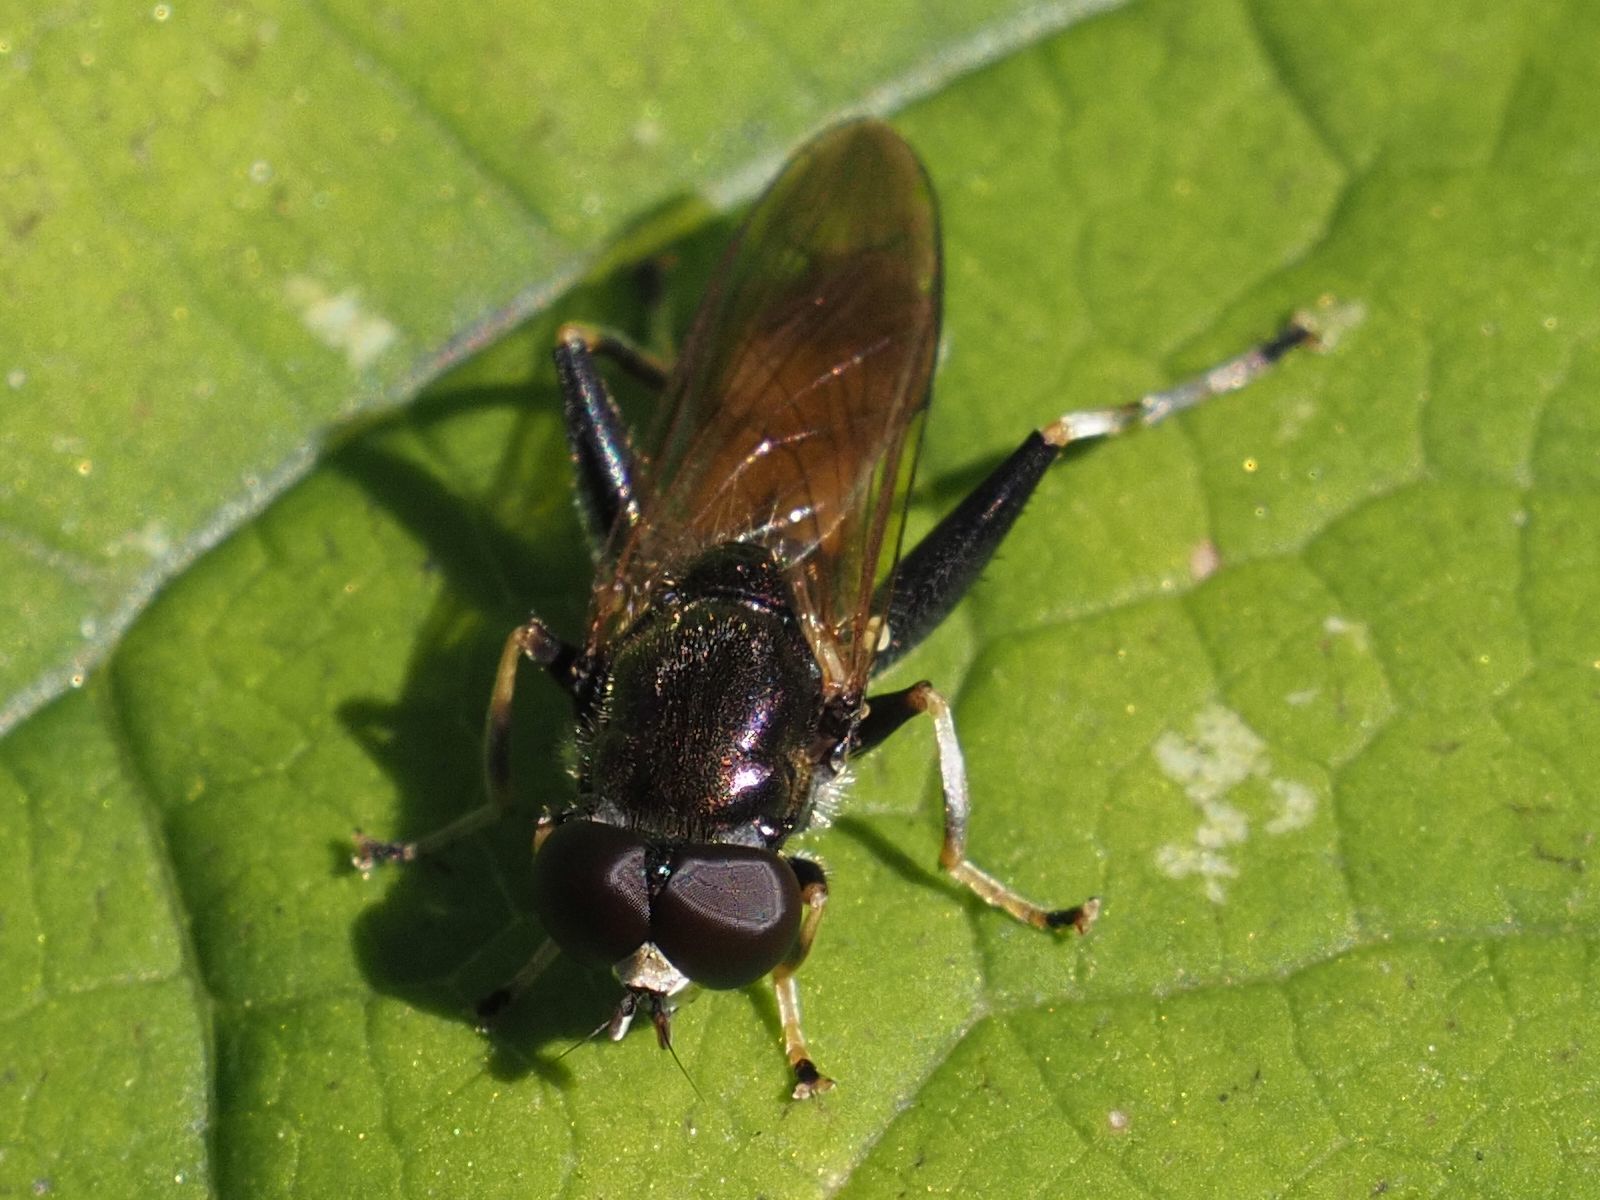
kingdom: Animalia
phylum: Arthropoda
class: Insecta
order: Diptera
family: Syrphidae
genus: Xylota
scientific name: Xylota segnis
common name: Brown-toed forest fly
